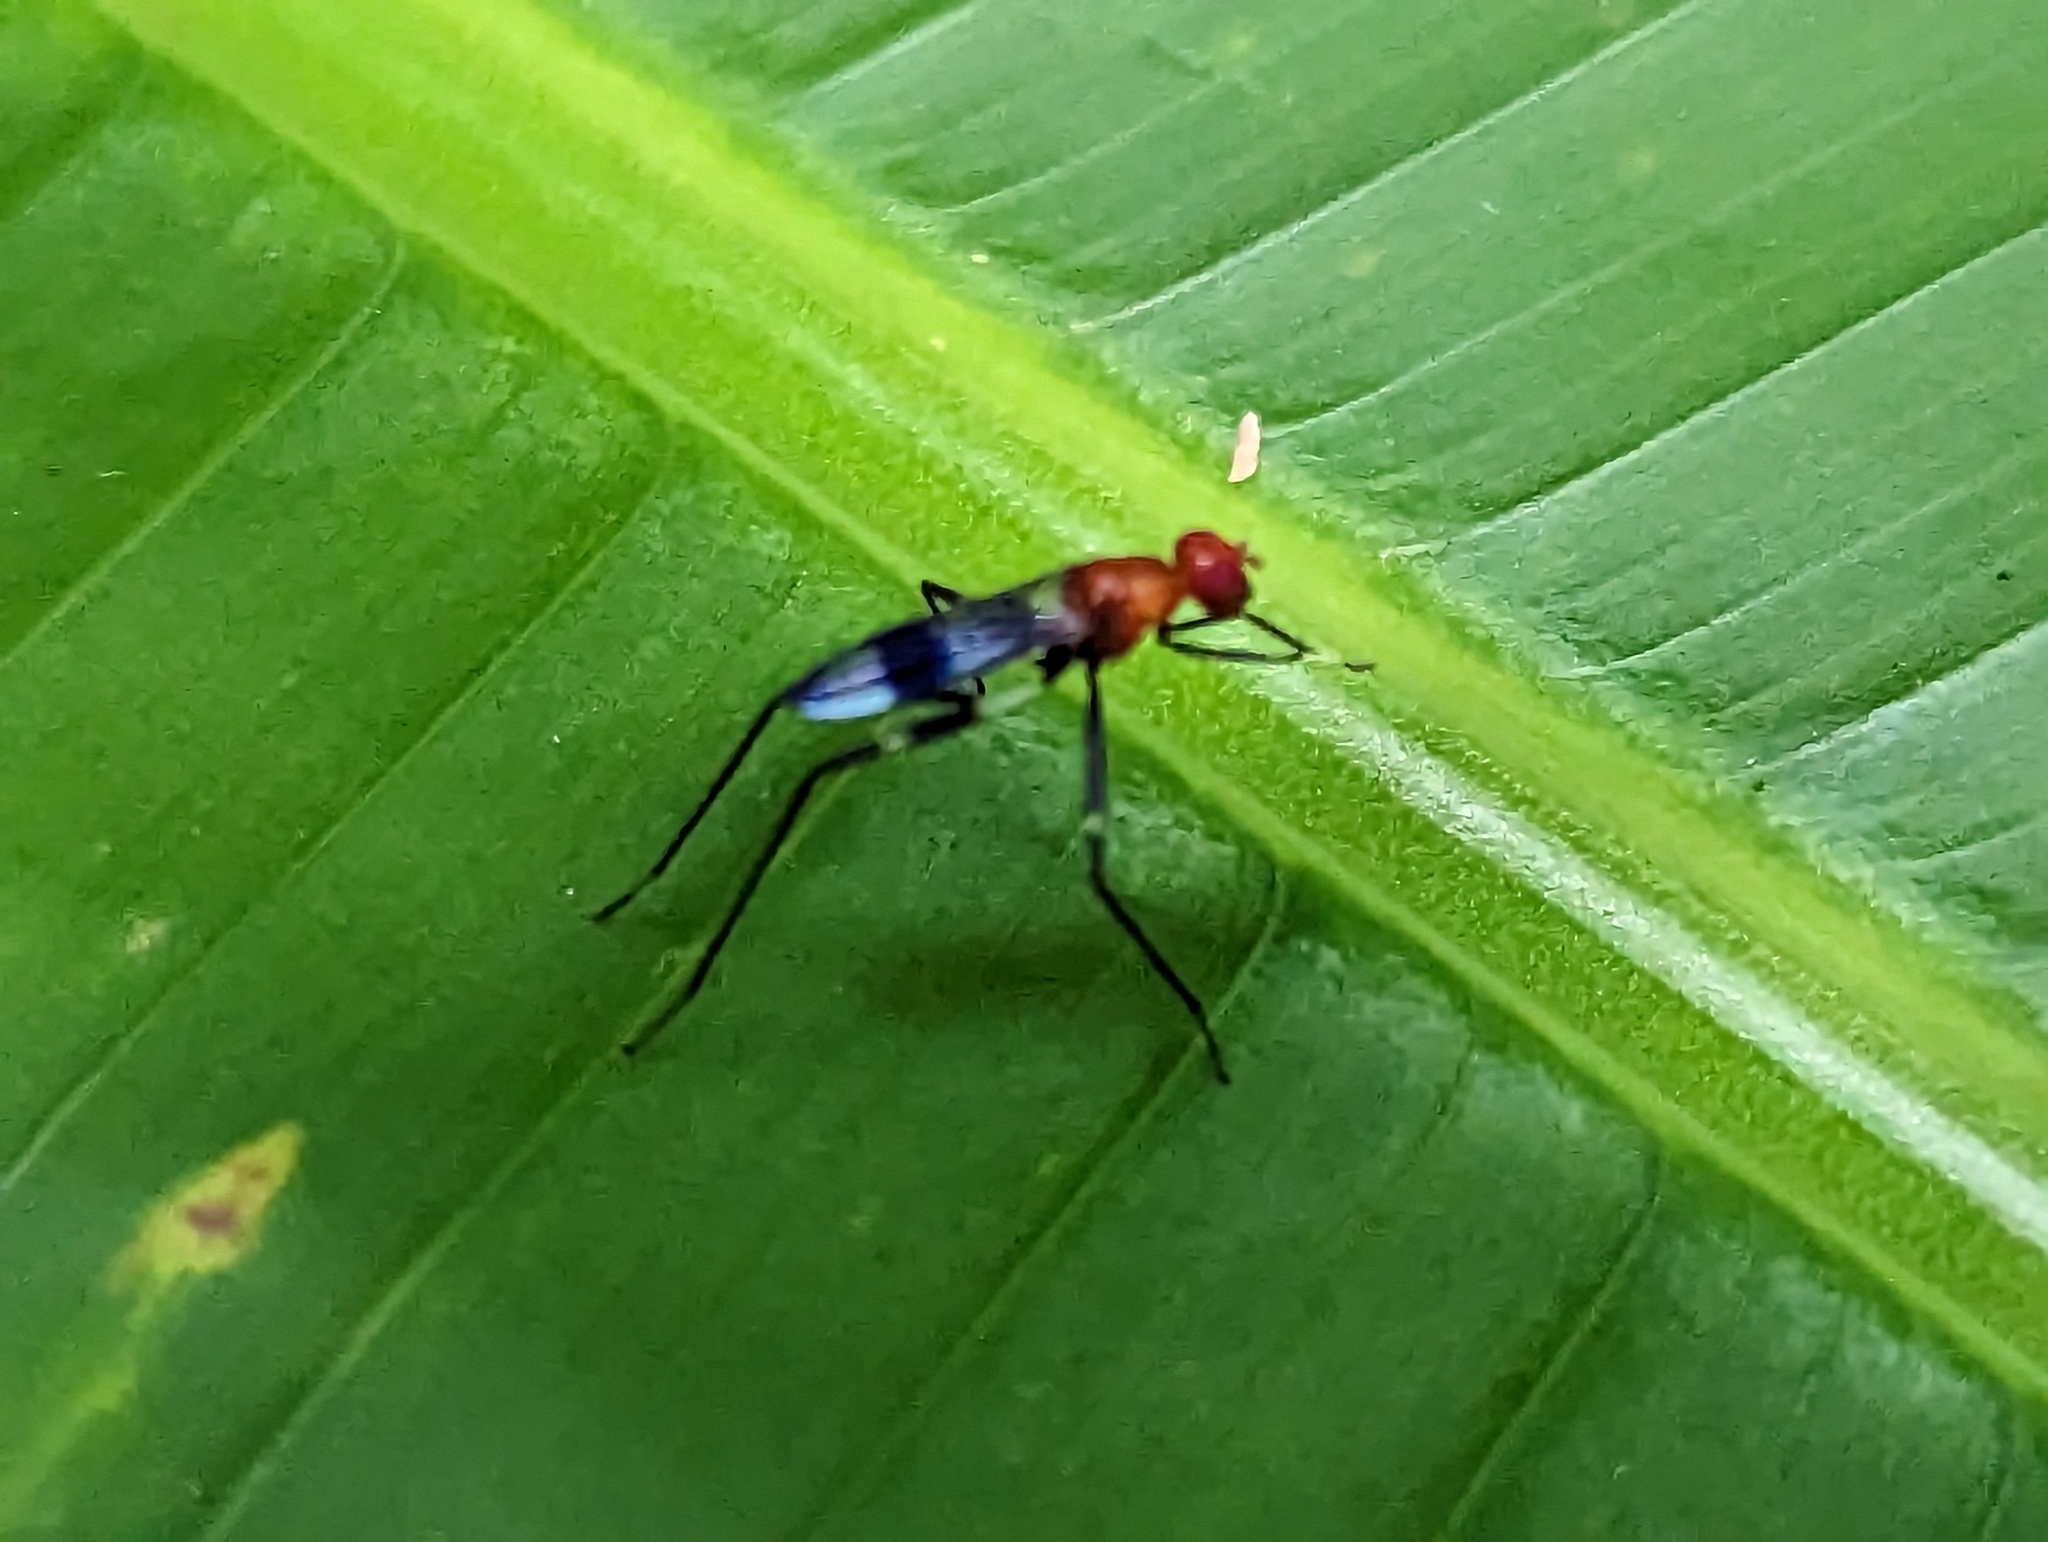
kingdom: Animalia
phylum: Arthropoda
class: Insecta
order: Diptera
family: Micropezidae
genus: Grallipeza
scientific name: Grallipeza scurra
